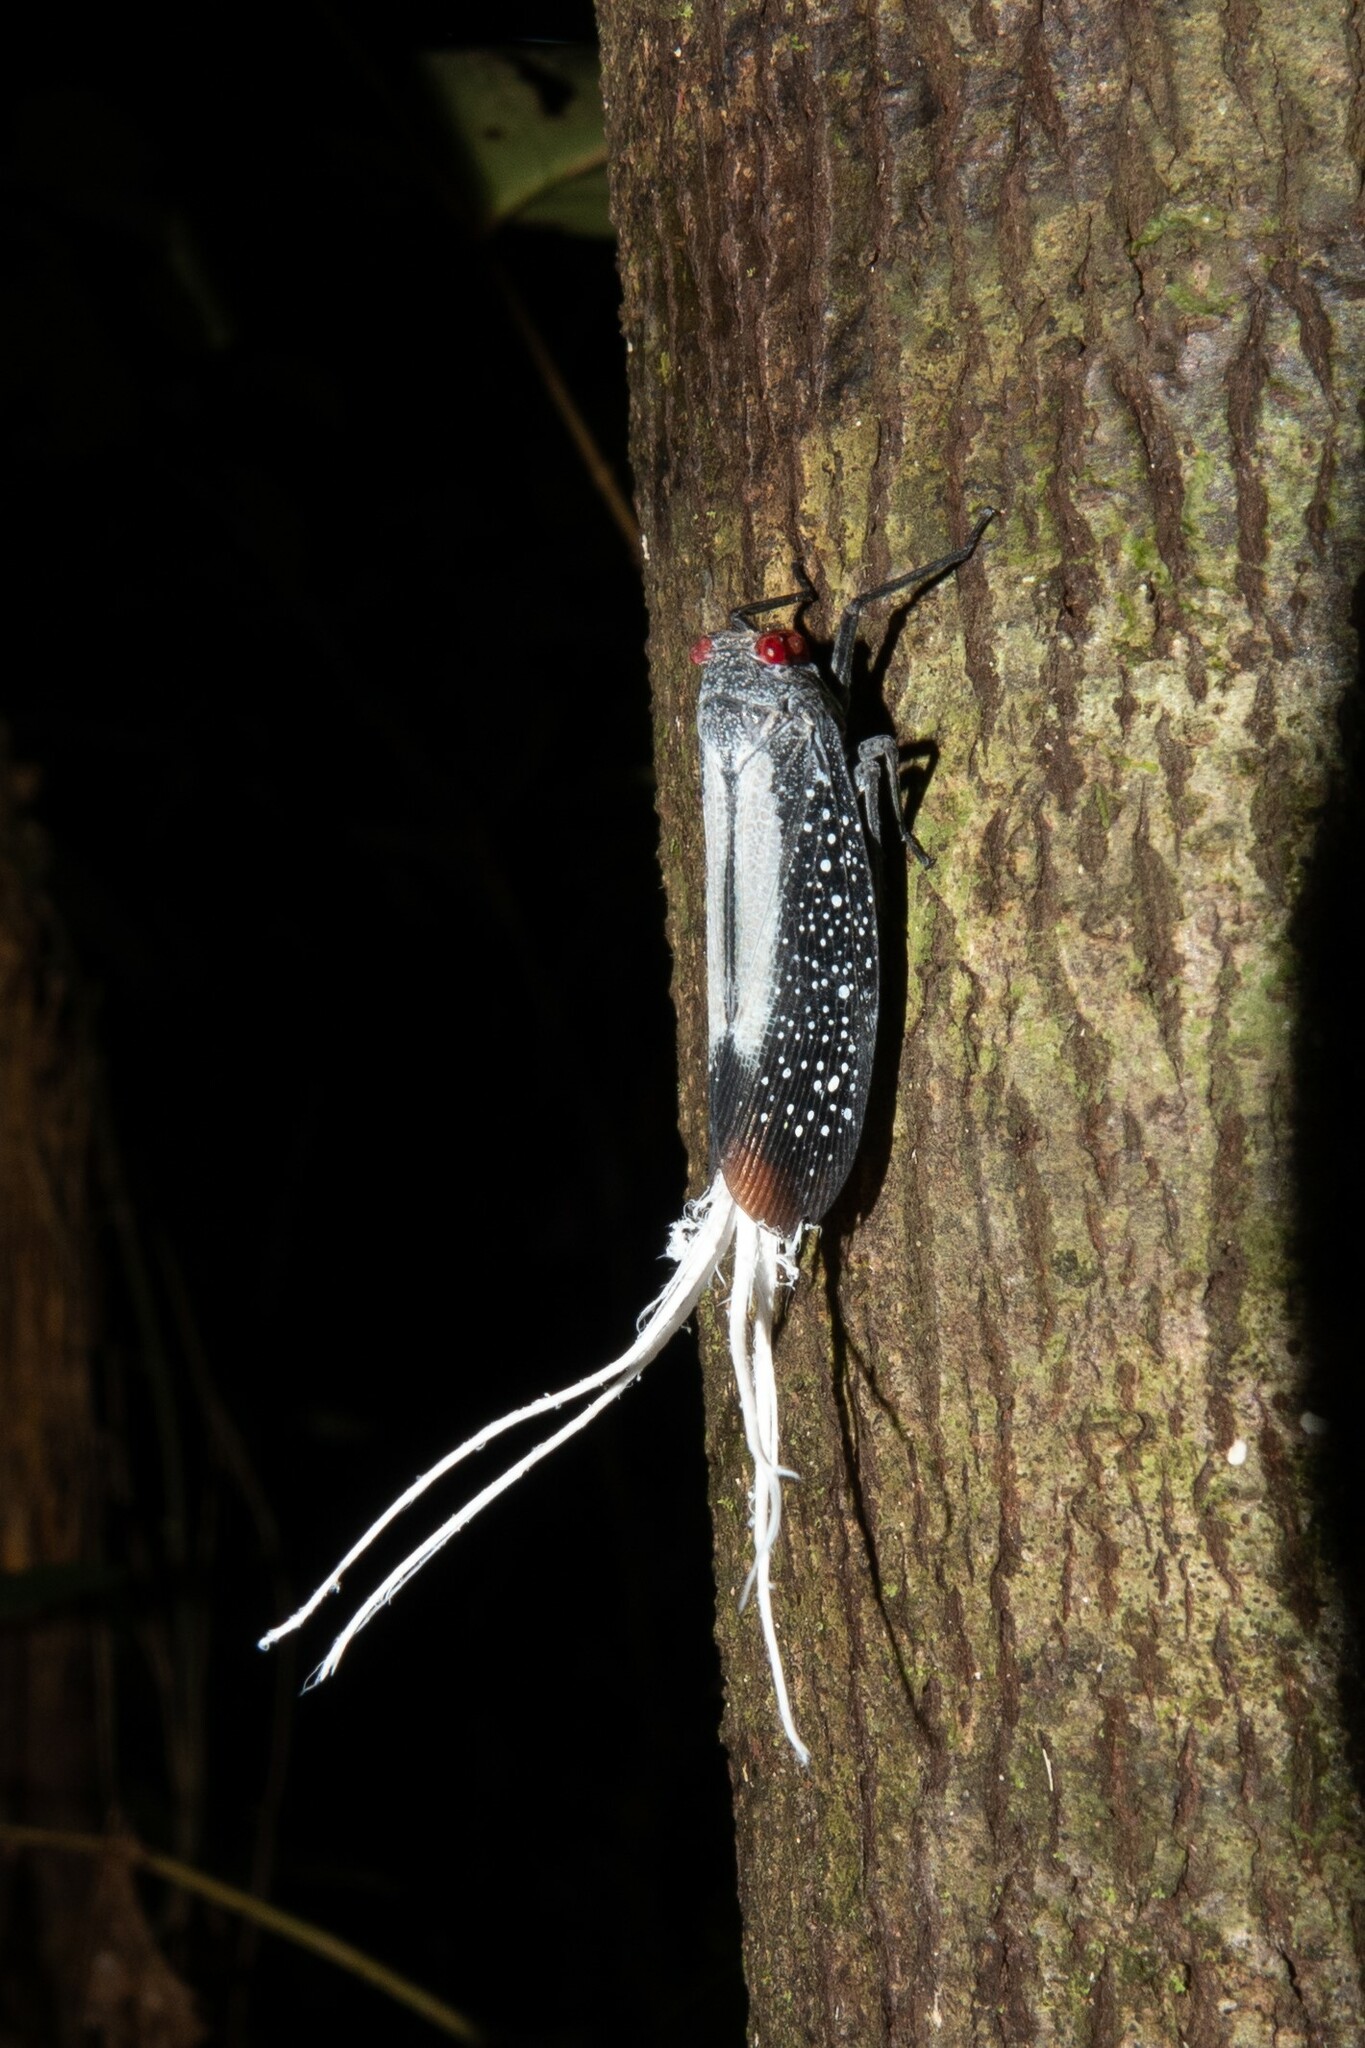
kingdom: Animalia
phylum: Arthropoda
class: Insecta
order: Hemiptera
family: Fulgoridae
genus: Lystra
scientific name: Lystra lanata
